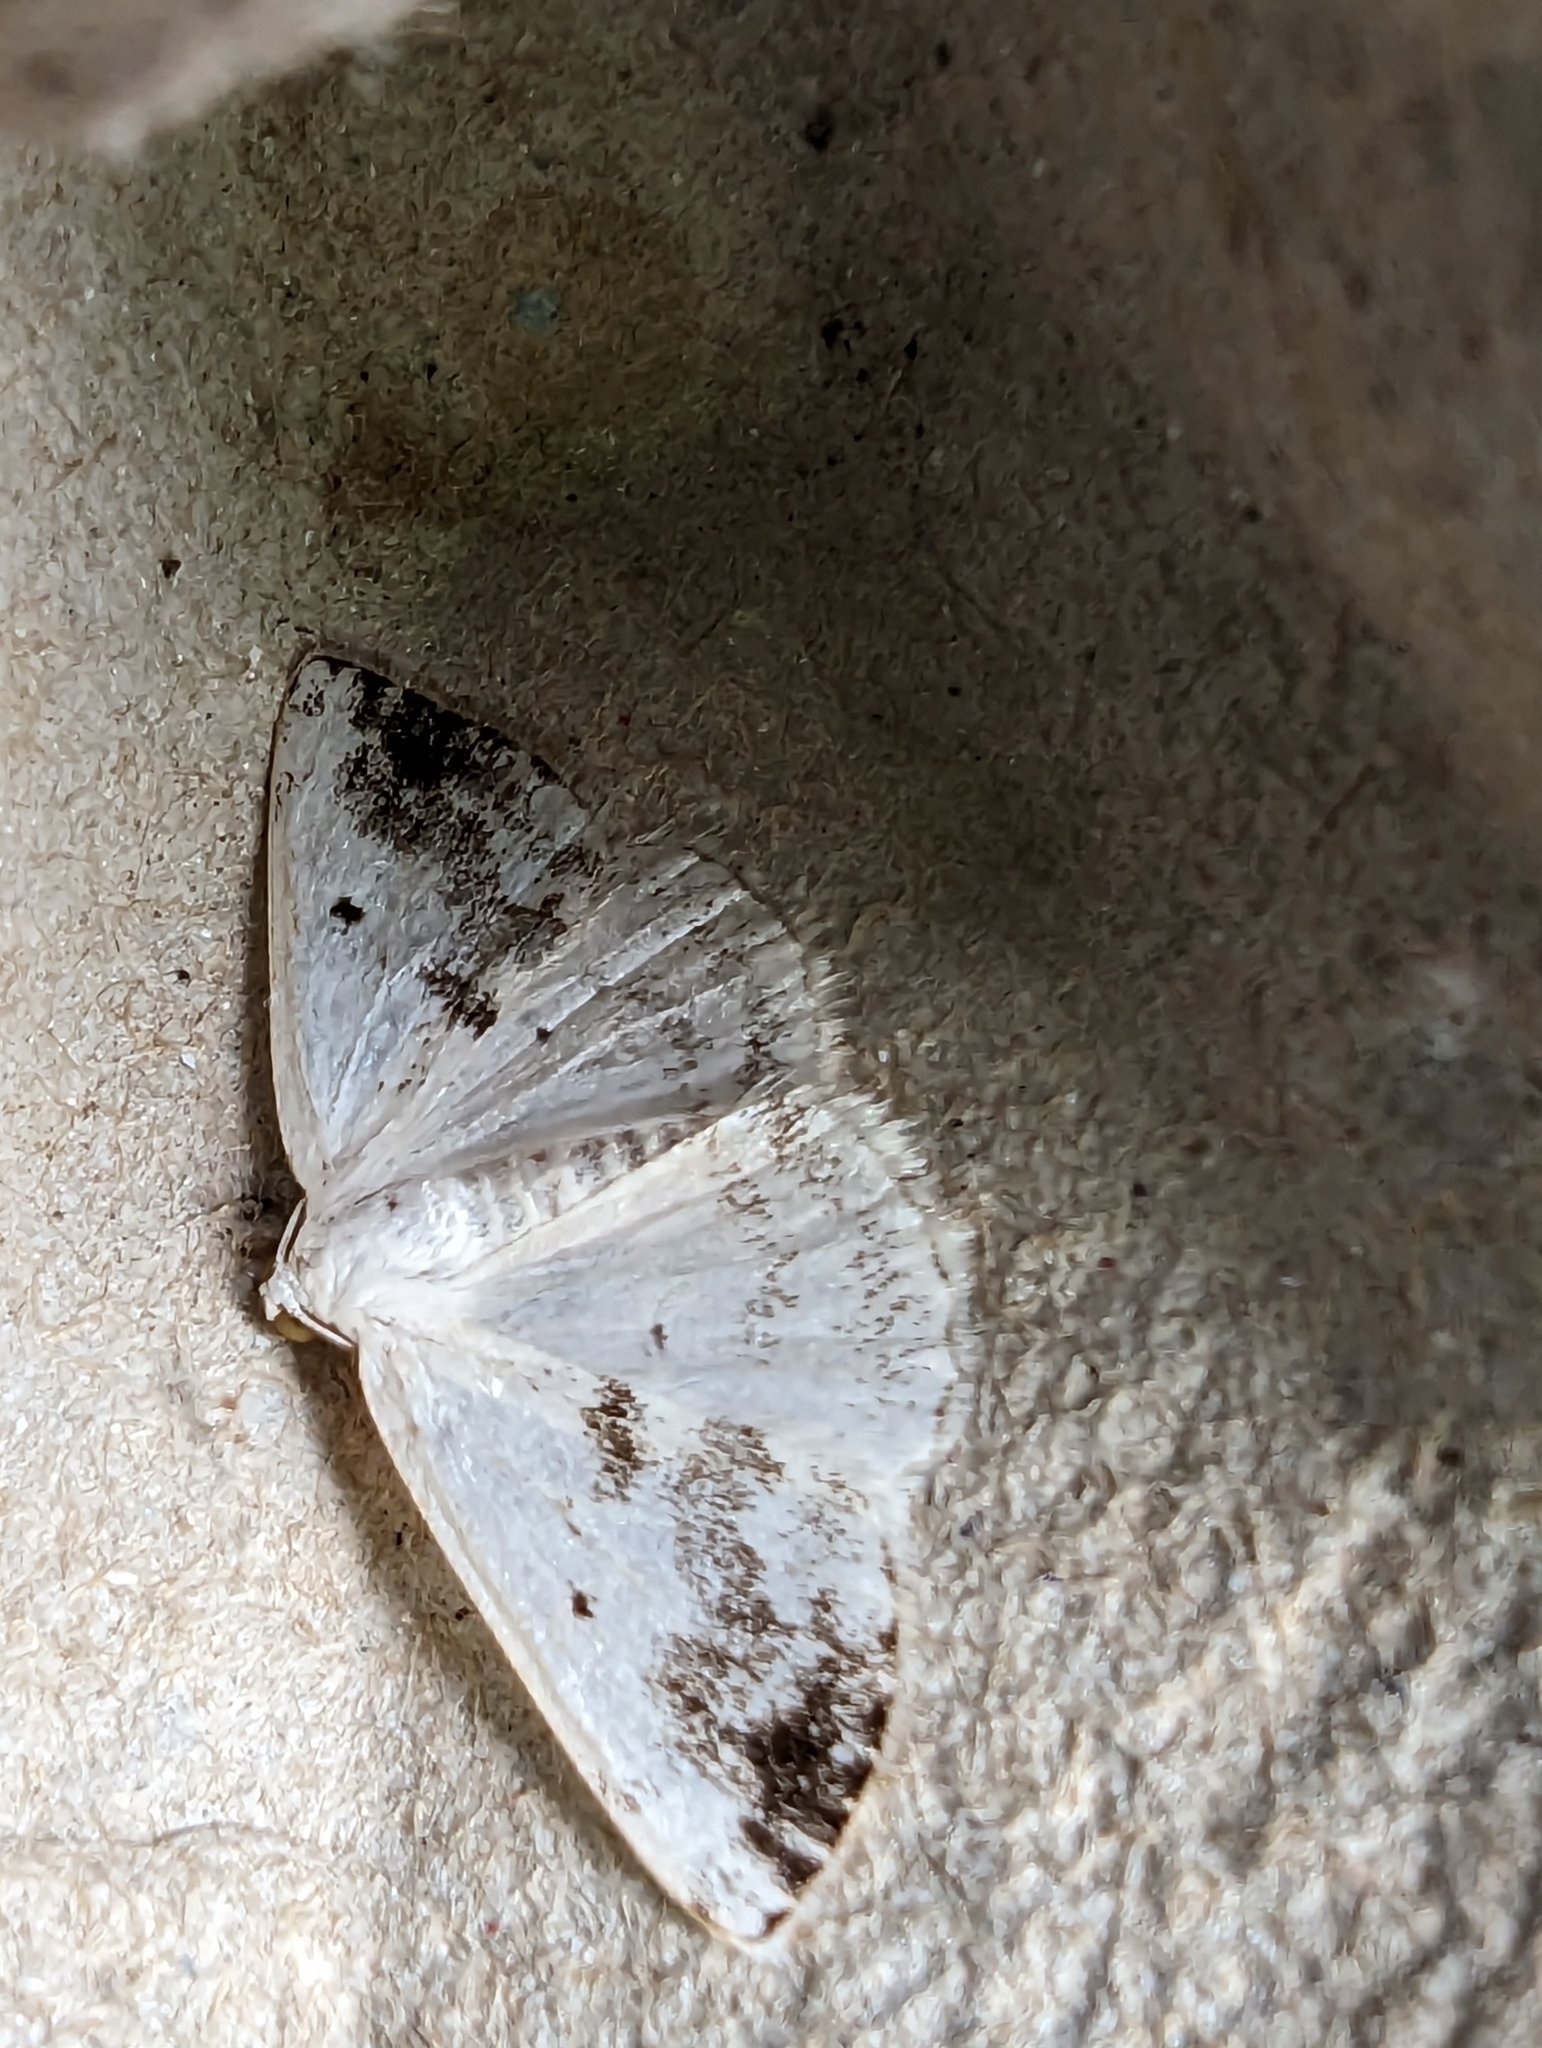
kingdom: Animalia
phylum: Arthropoda
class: Insecta
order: Lepidoptera
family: Geometridae
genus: Lomographa
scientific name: Lomographa temerata
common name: Clouded silver
